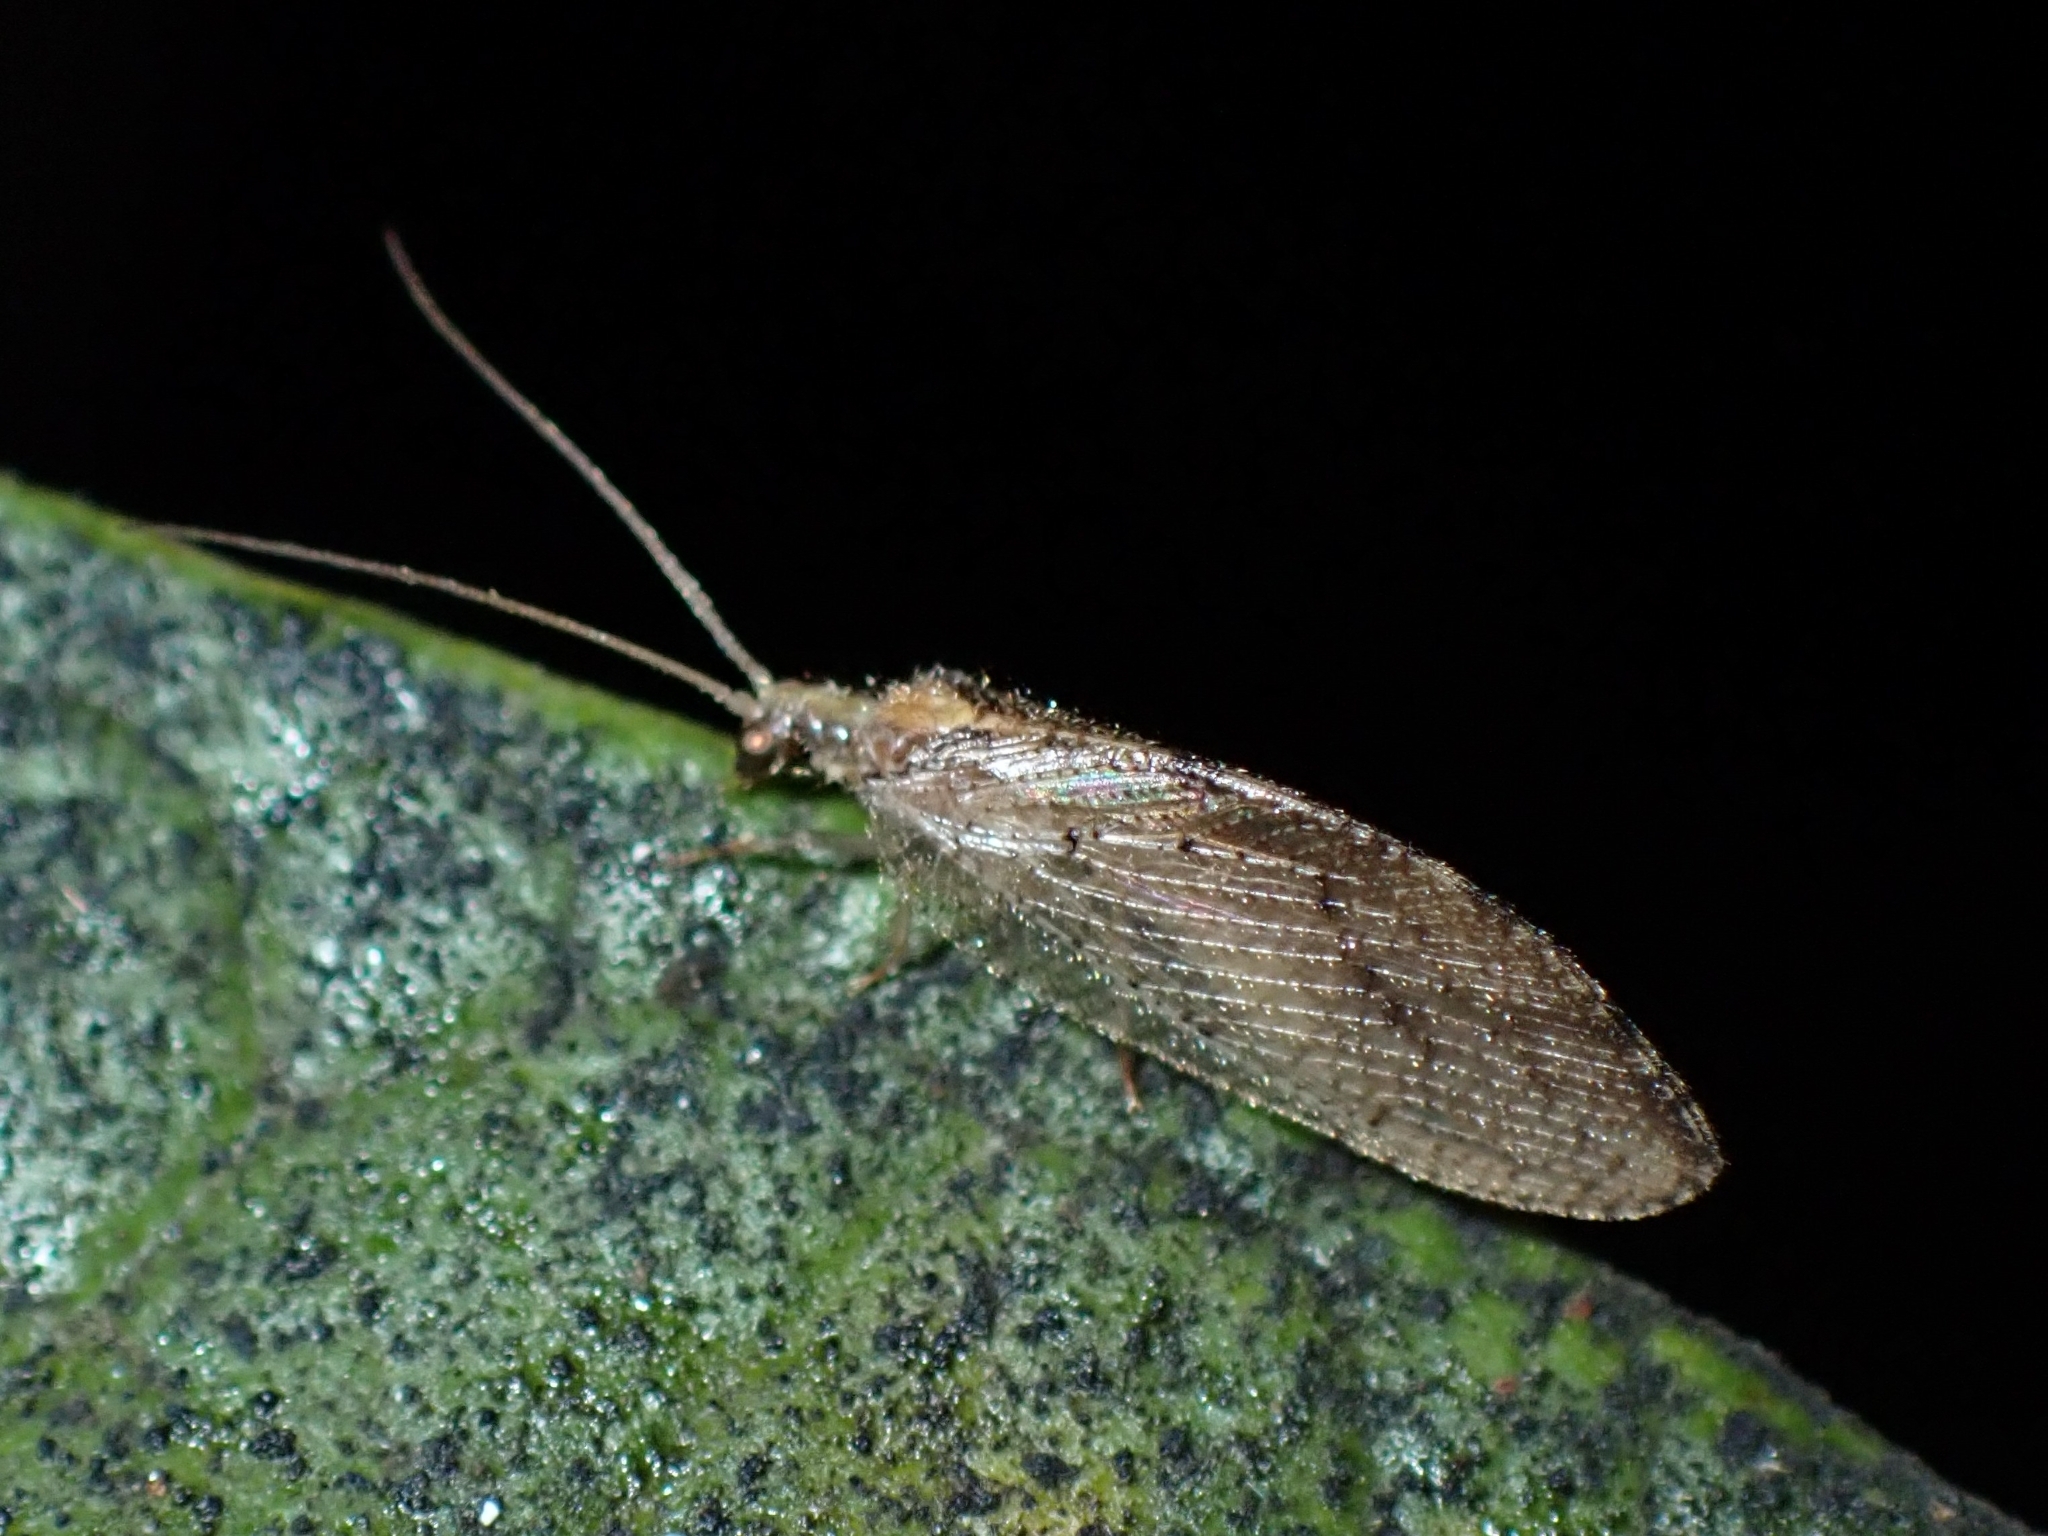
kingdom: Animalia
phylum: Arthropoda
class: Insecta
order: Neuroptera
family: Hemerobiidae
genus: Hemerobius
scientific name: Hemerobius eatoni
